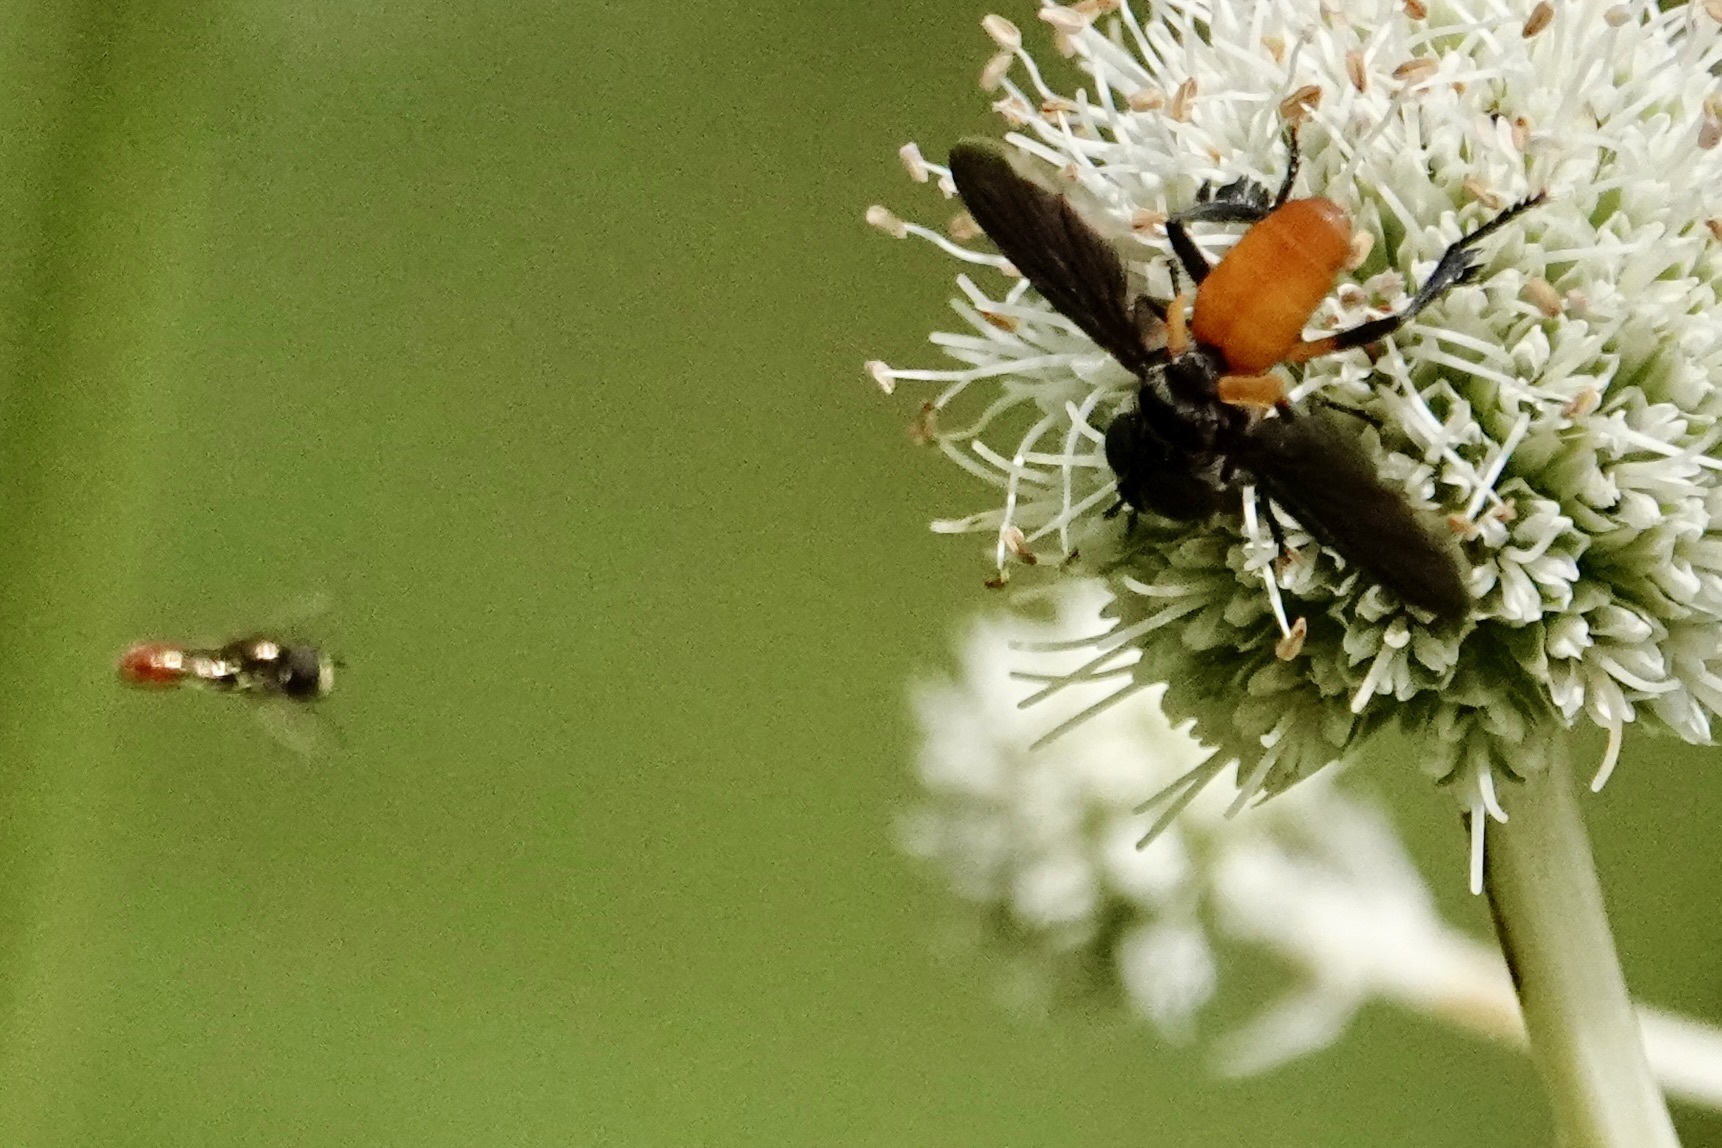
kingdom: Animalia
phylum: Arthropoda
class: Insecta
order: Diptera
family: Tachinidae
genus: Trichopoda
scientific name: Trichopoda pennipes
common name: Tachinid fly
